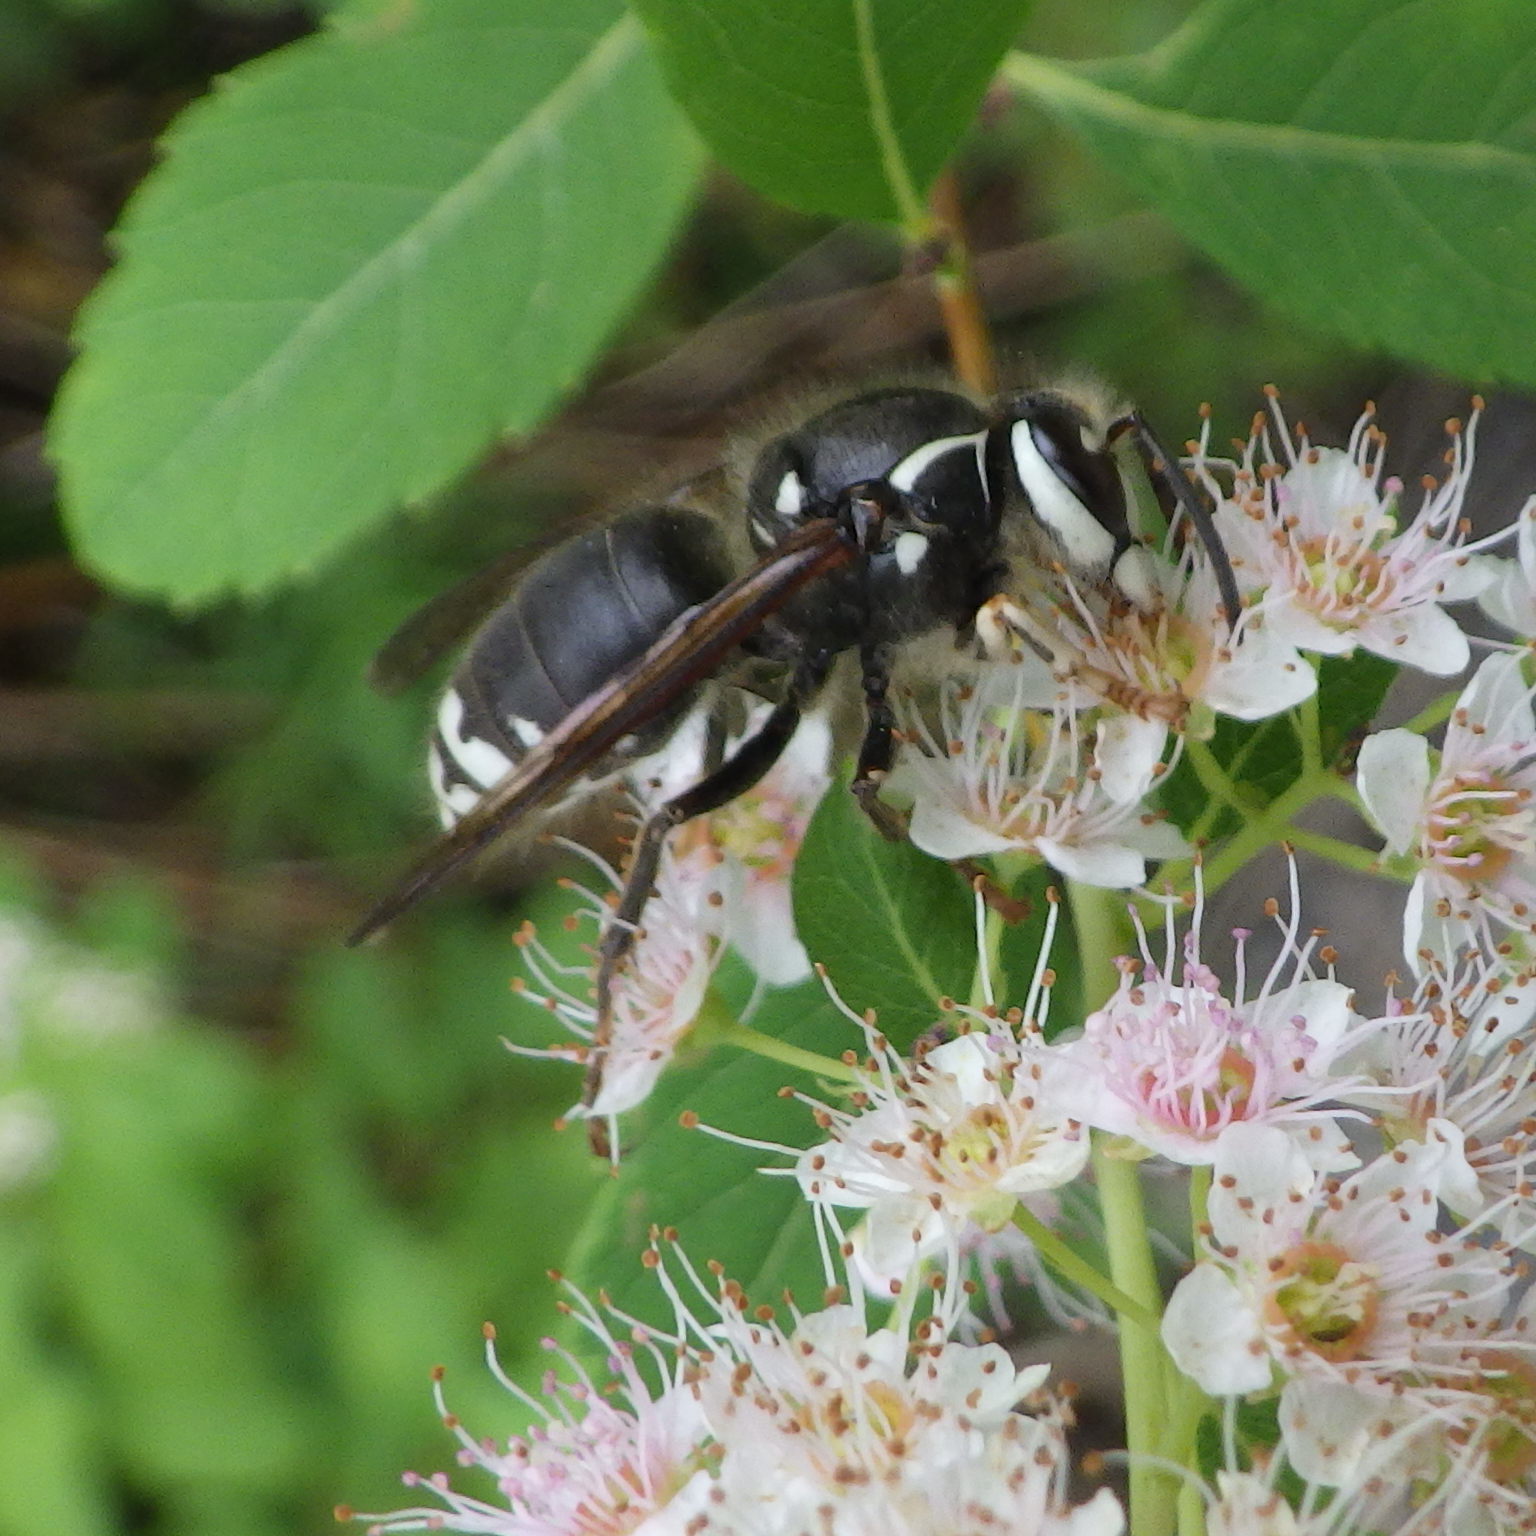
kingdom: Animalia
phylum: Arthropoda
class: Insecta
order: Hymenoptera
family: Vespidae
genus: Dolichovespula
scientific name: Dolichovespula maculata
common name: Bald-faced hornet
